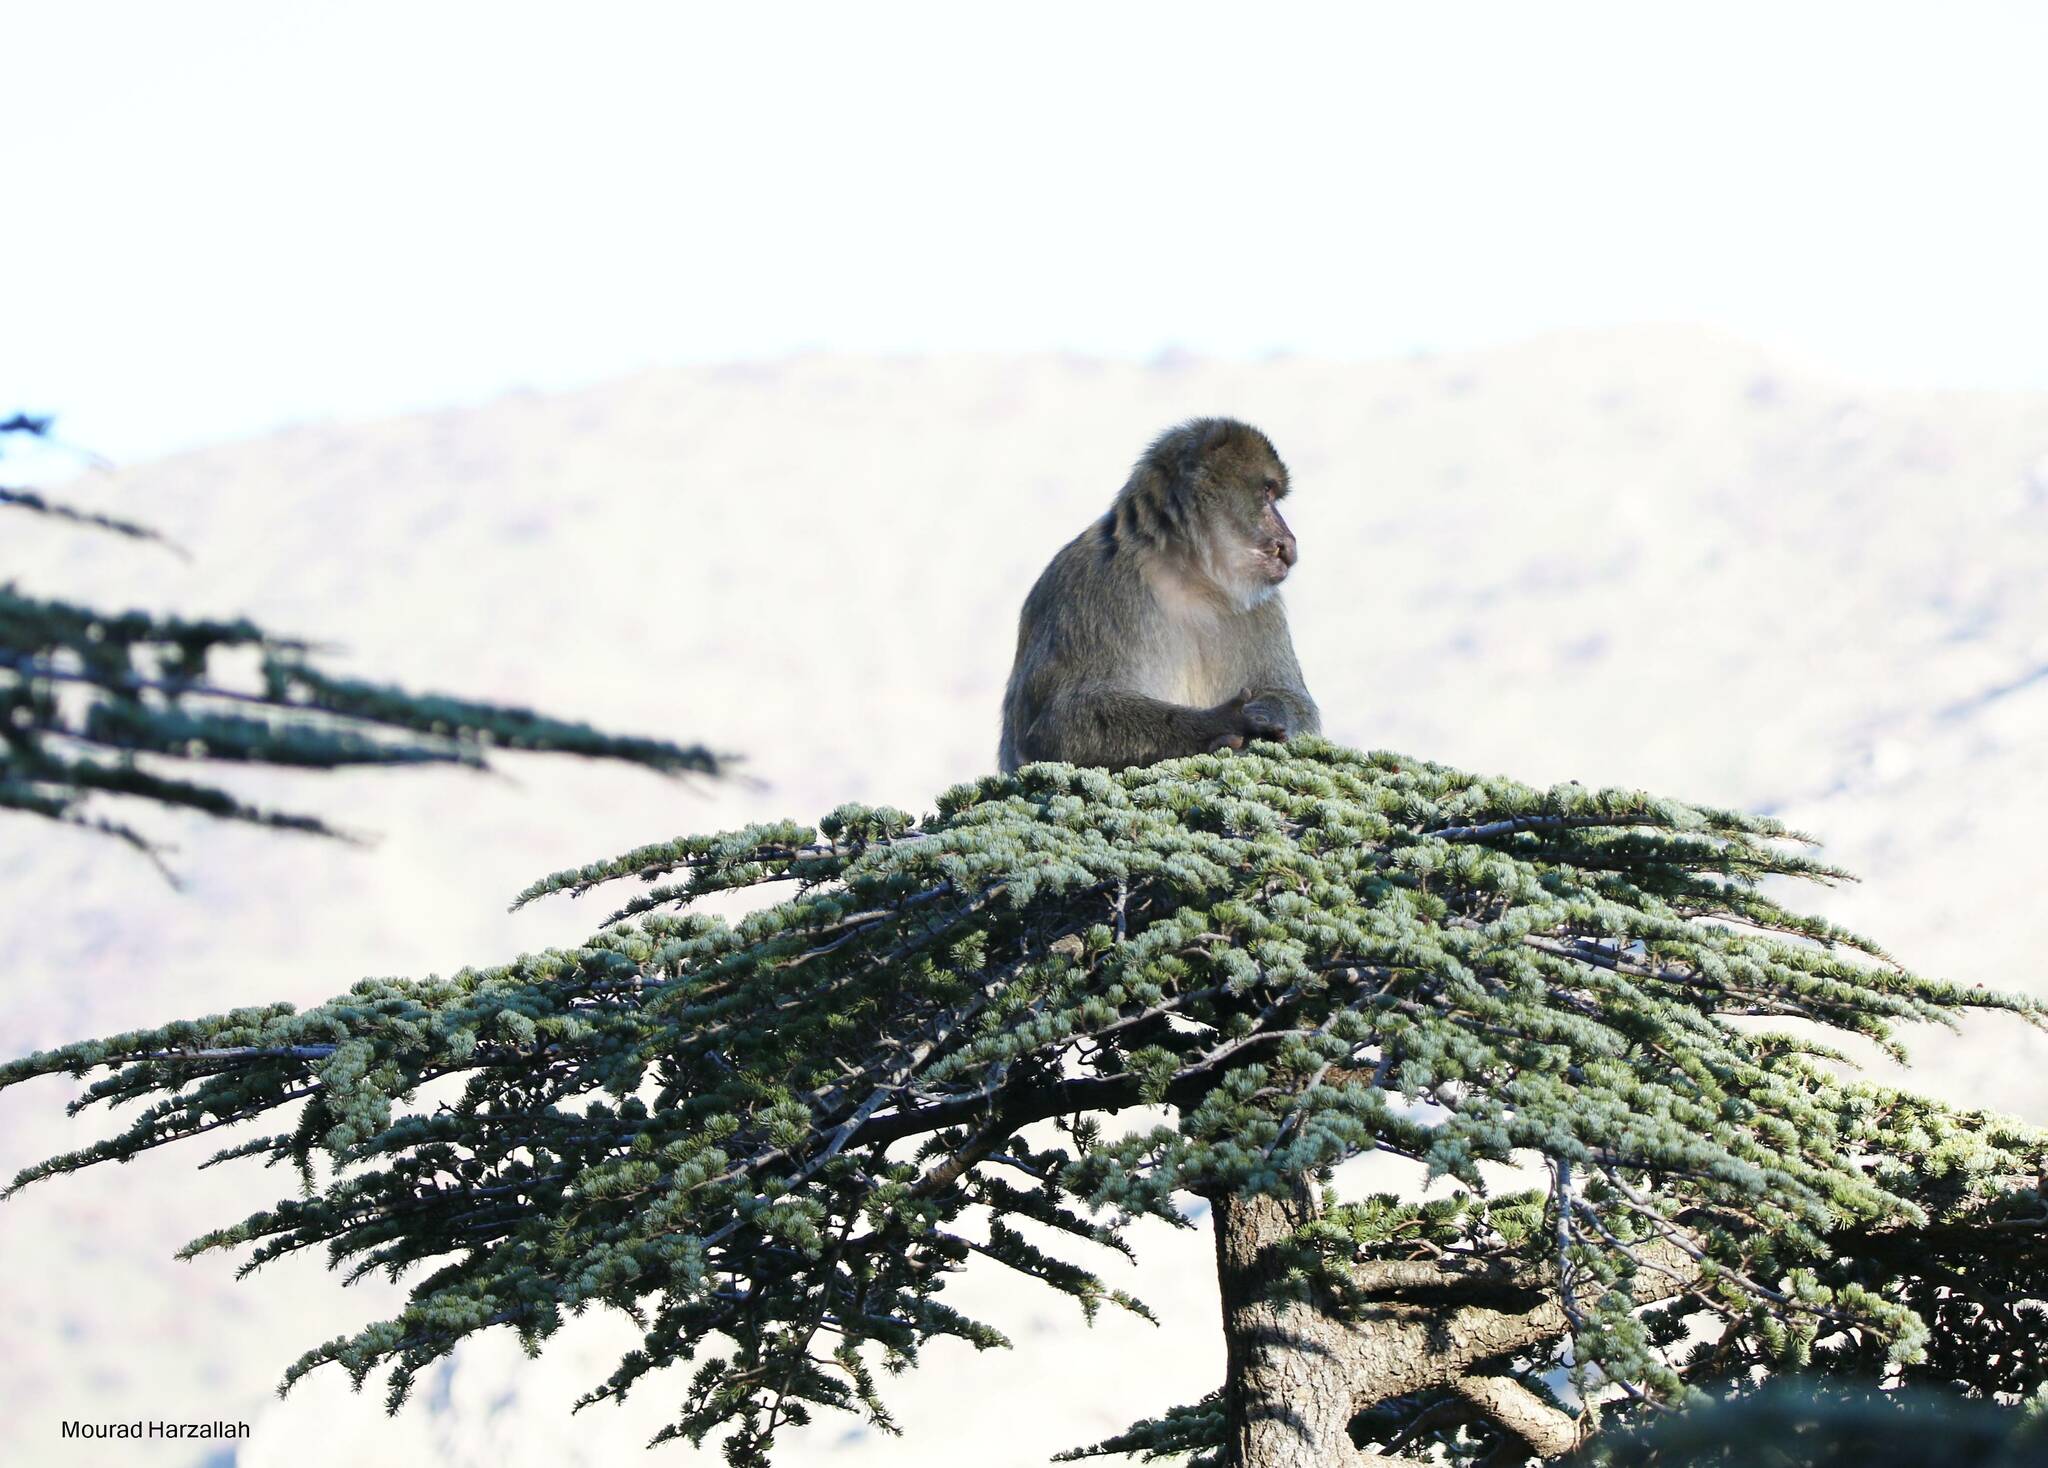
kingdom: Animalia
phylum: Chordata
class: Mammalia
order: Primates
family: Cercopithecidae
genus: Macaca
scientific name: Macaca sylvanus
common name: Barbary macaque
